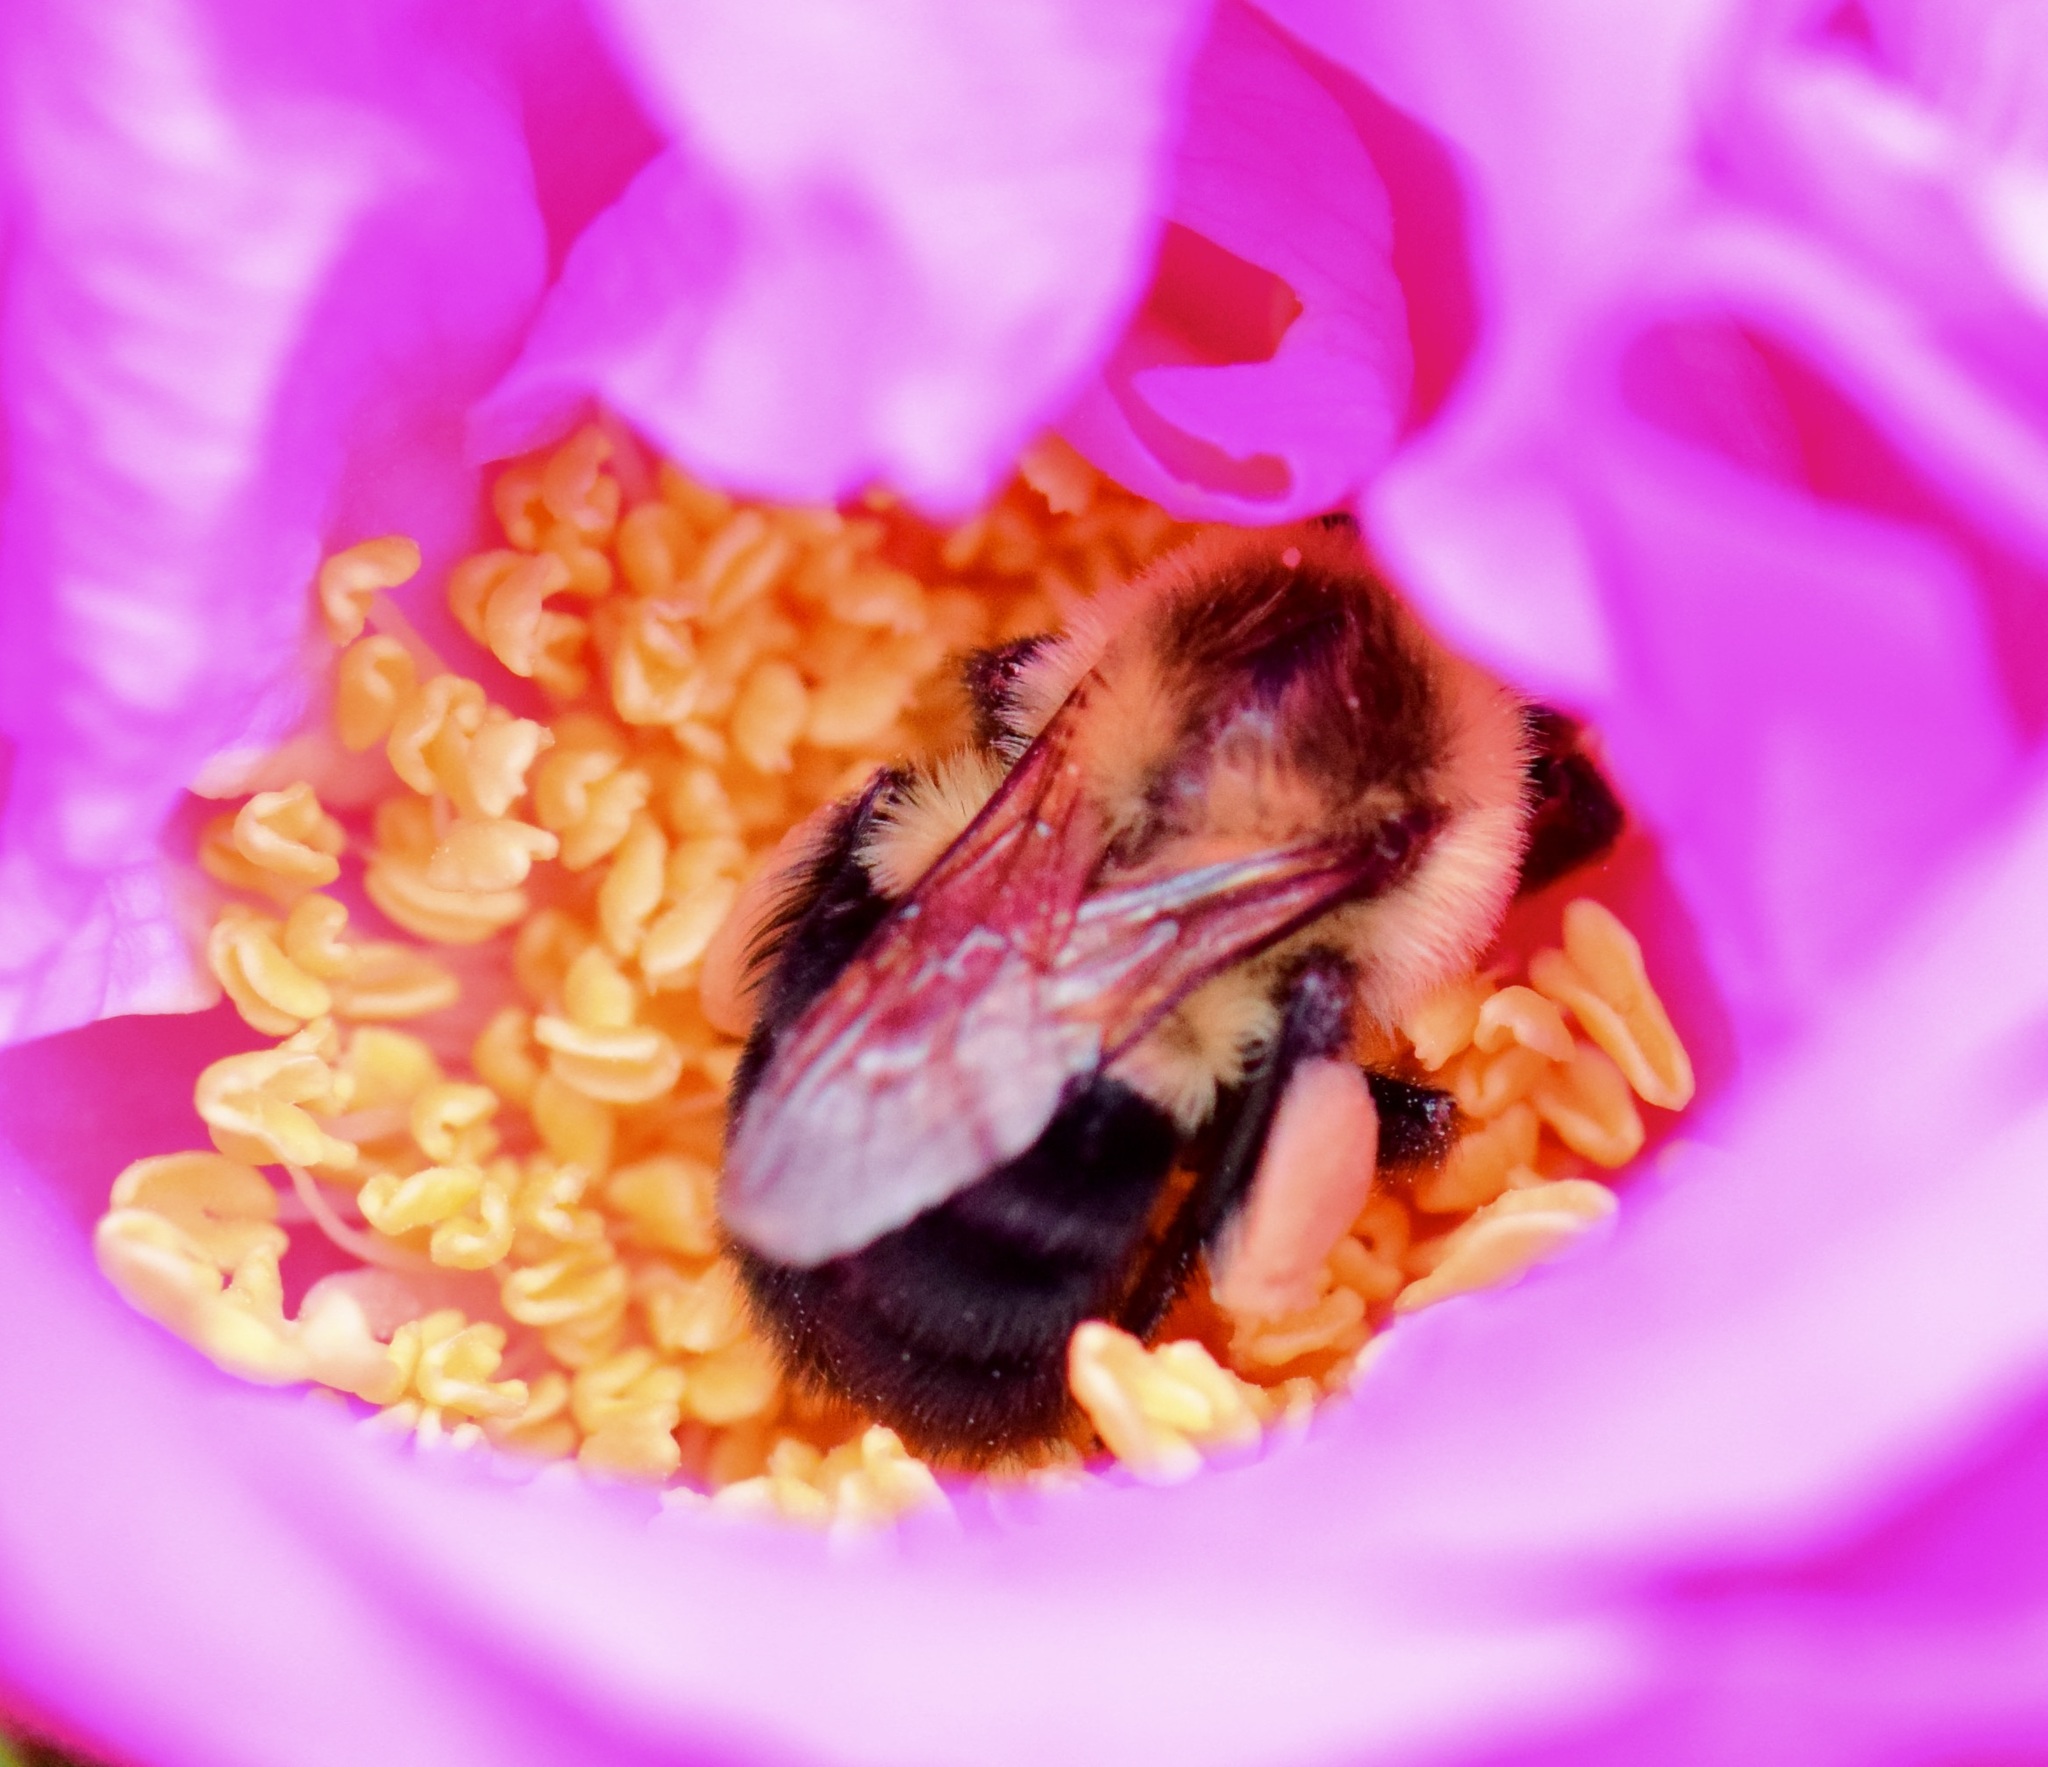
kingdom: Animalia
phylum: Arthropoda
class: Insecta
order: Hymenoptera
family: Apidae
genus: Bombus
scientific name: Bombus impatiens
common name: Common eastern bumble bee
